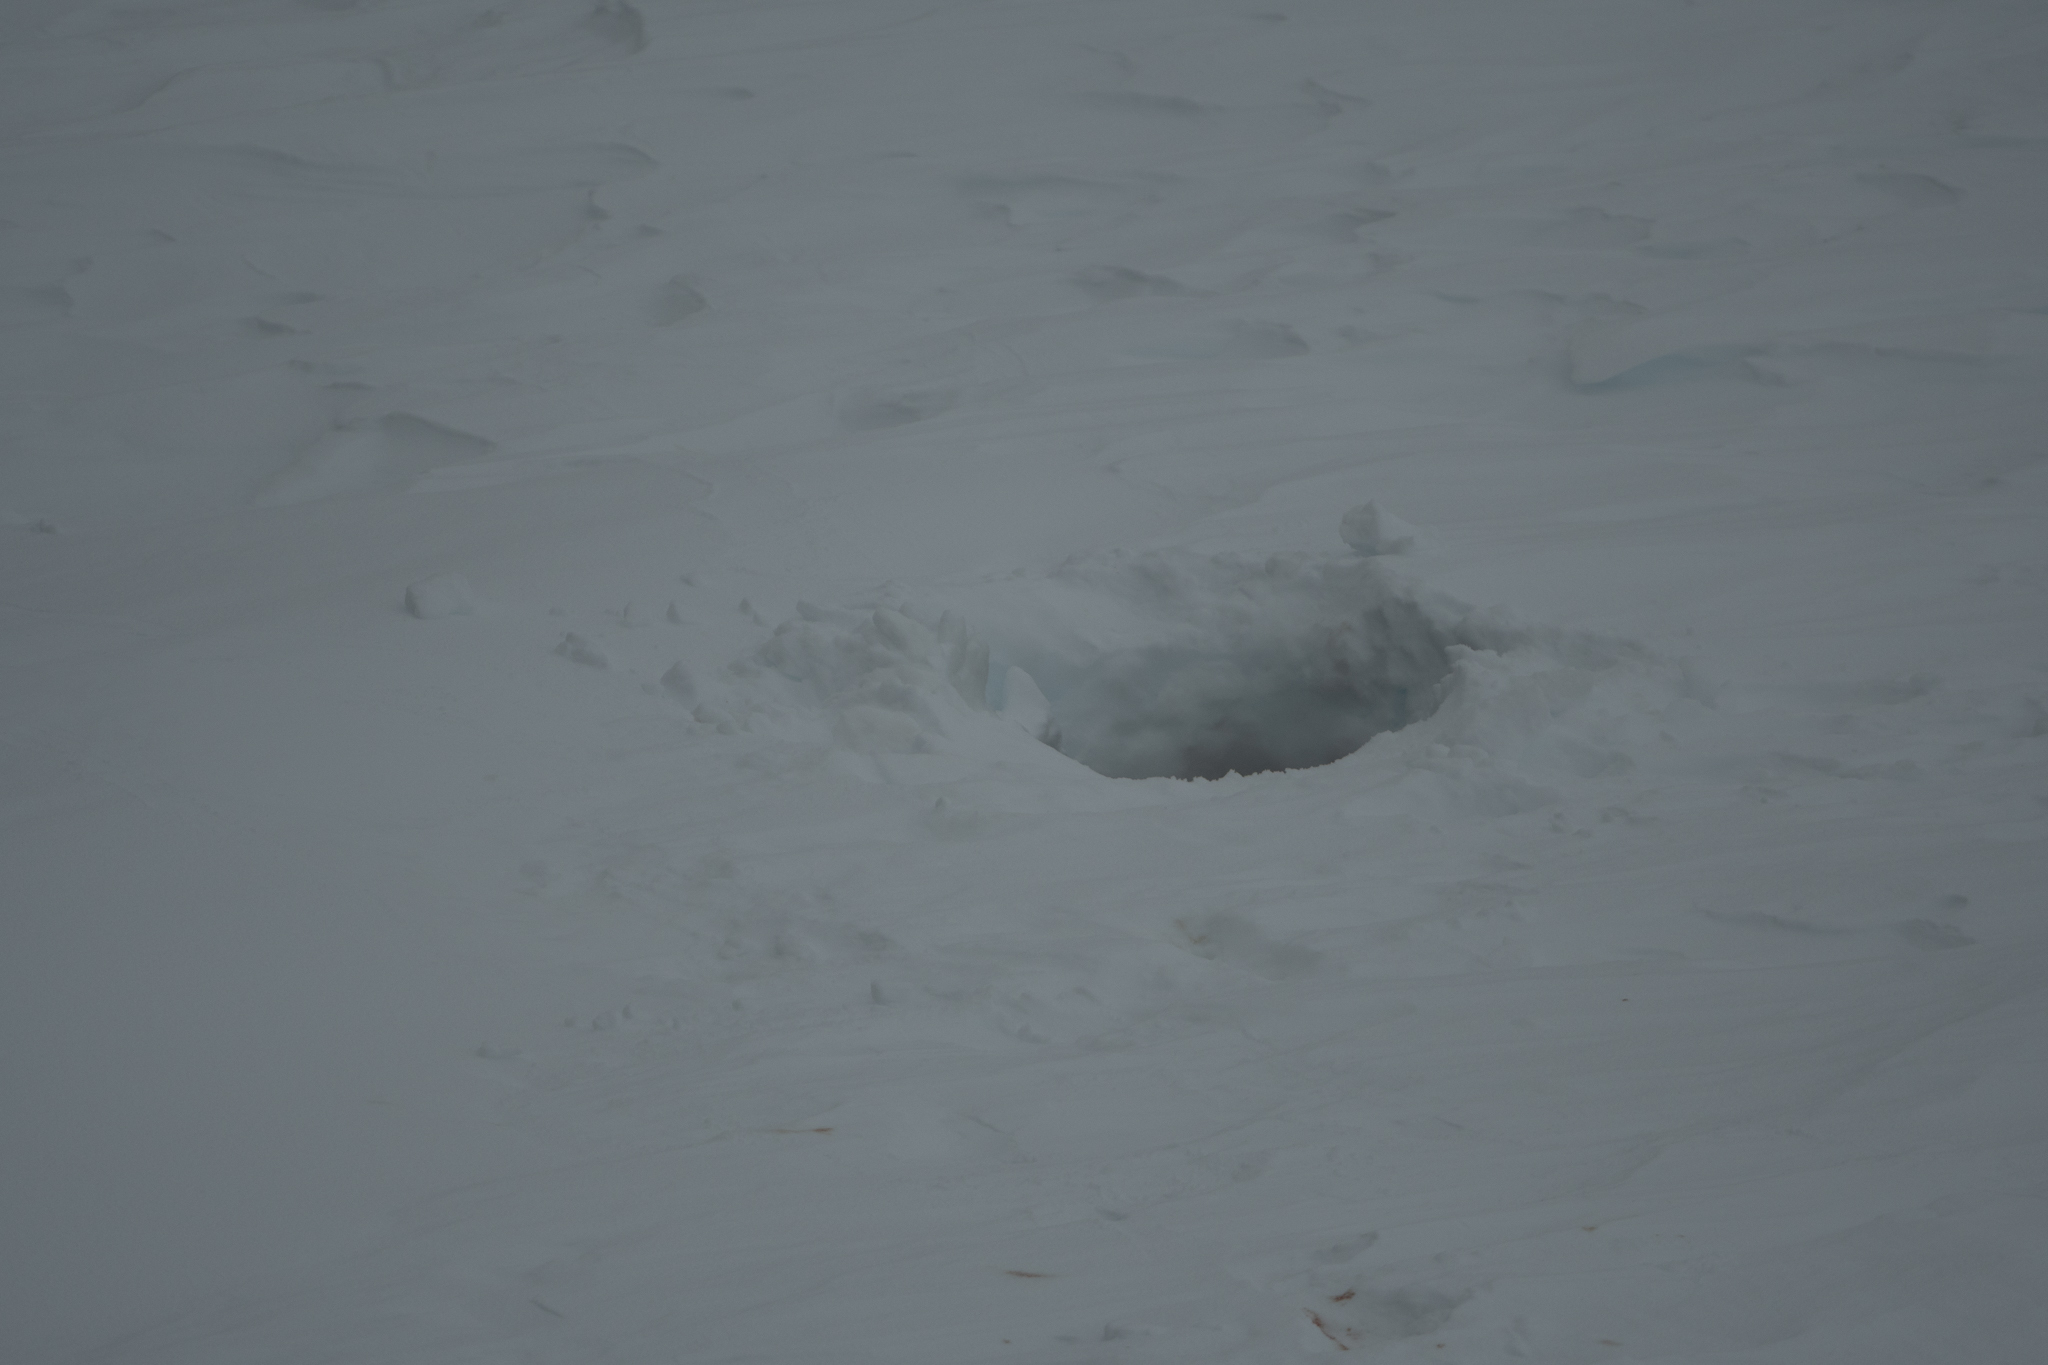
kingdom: Animalia
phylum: Chordata
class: Mammalia
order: Carnivora
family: Phocidae
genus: Leptonychotes
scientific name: Leptonychotes weddellii
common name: Weddell seal
